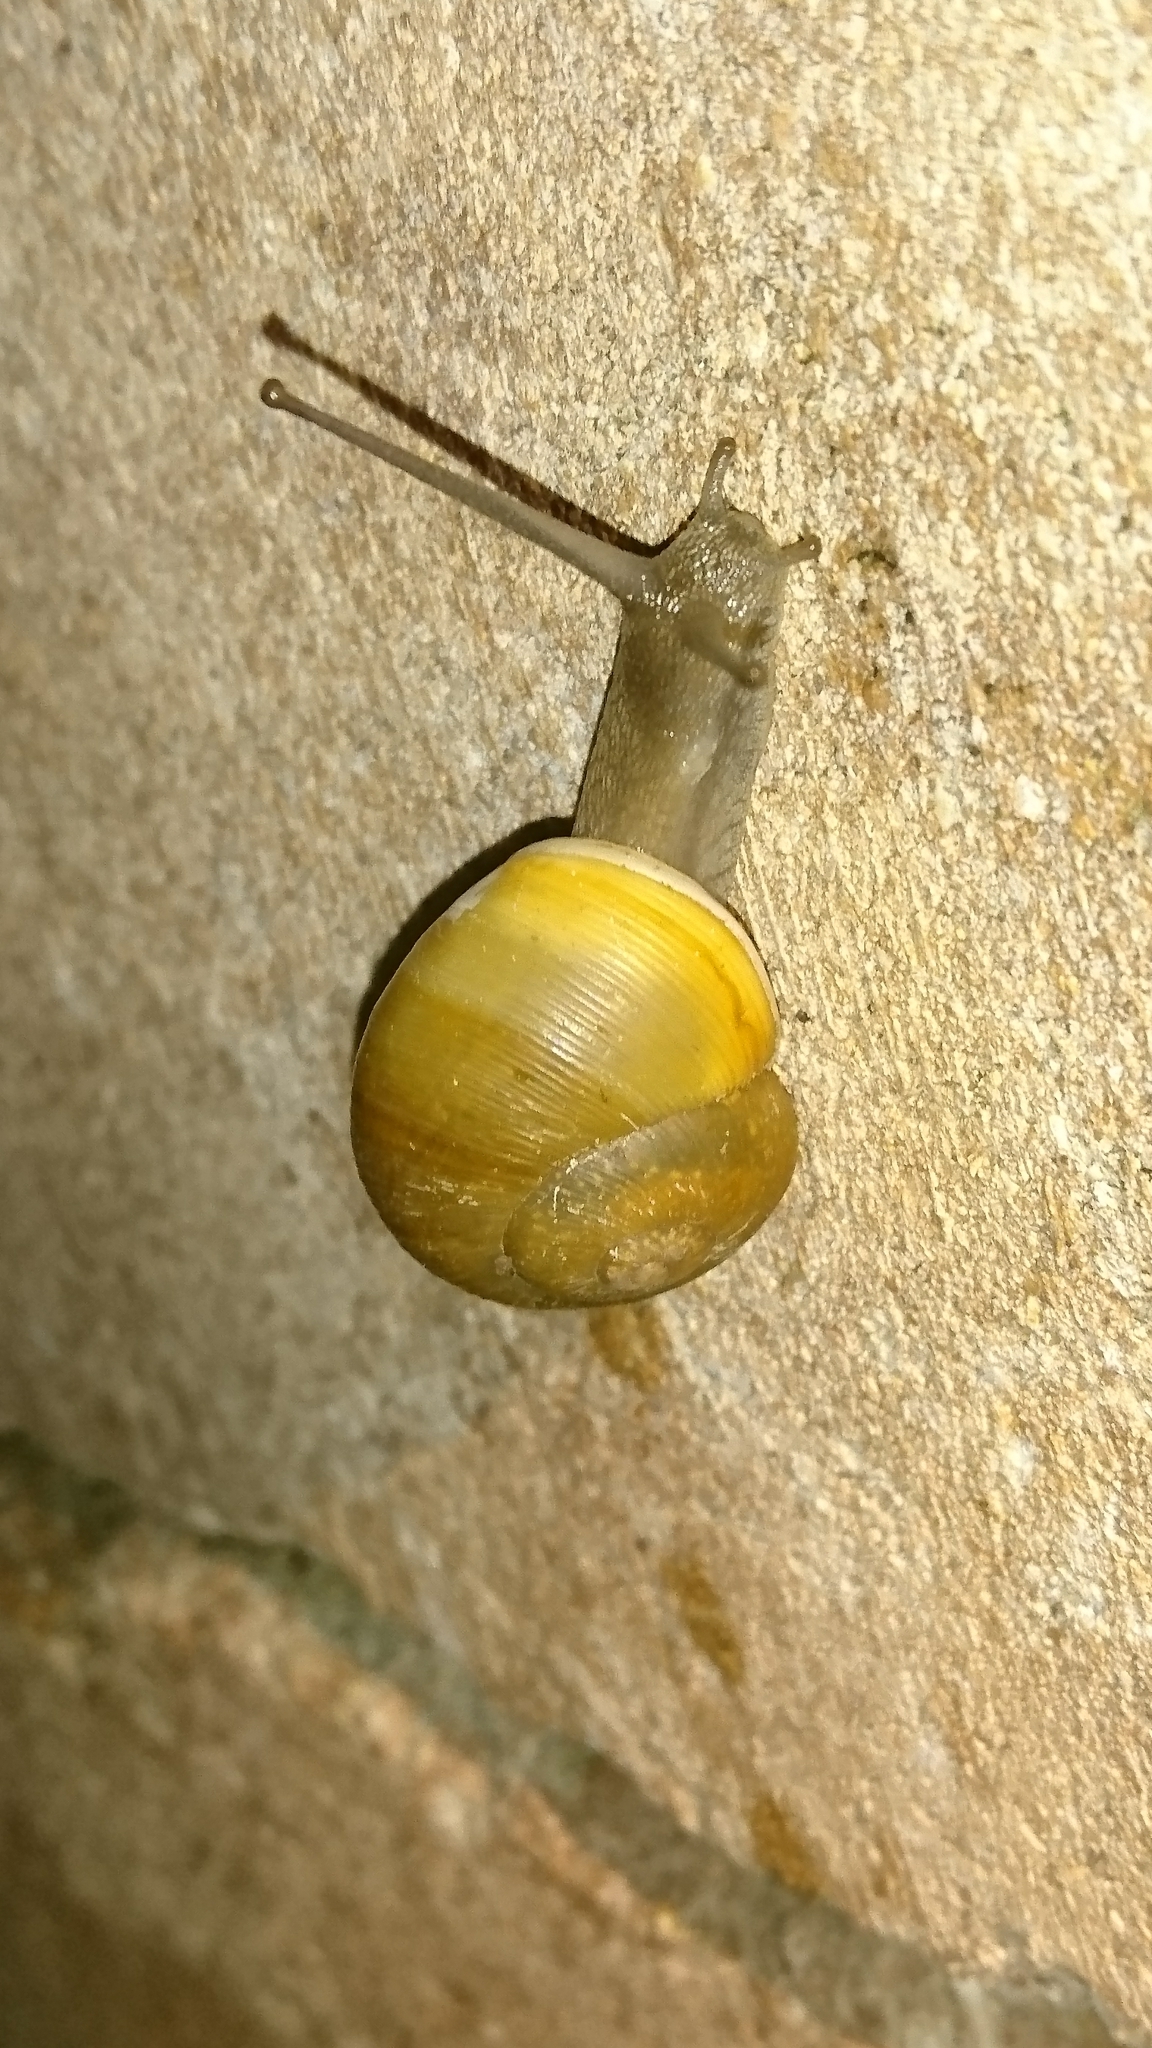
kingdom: Animalia
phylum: Mollusca
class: Gastropoda
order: Stylommatophora
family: Zachrysiidae
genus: Zachrysia
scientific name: Zachrysia provisoria
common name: Garden zachrysia
